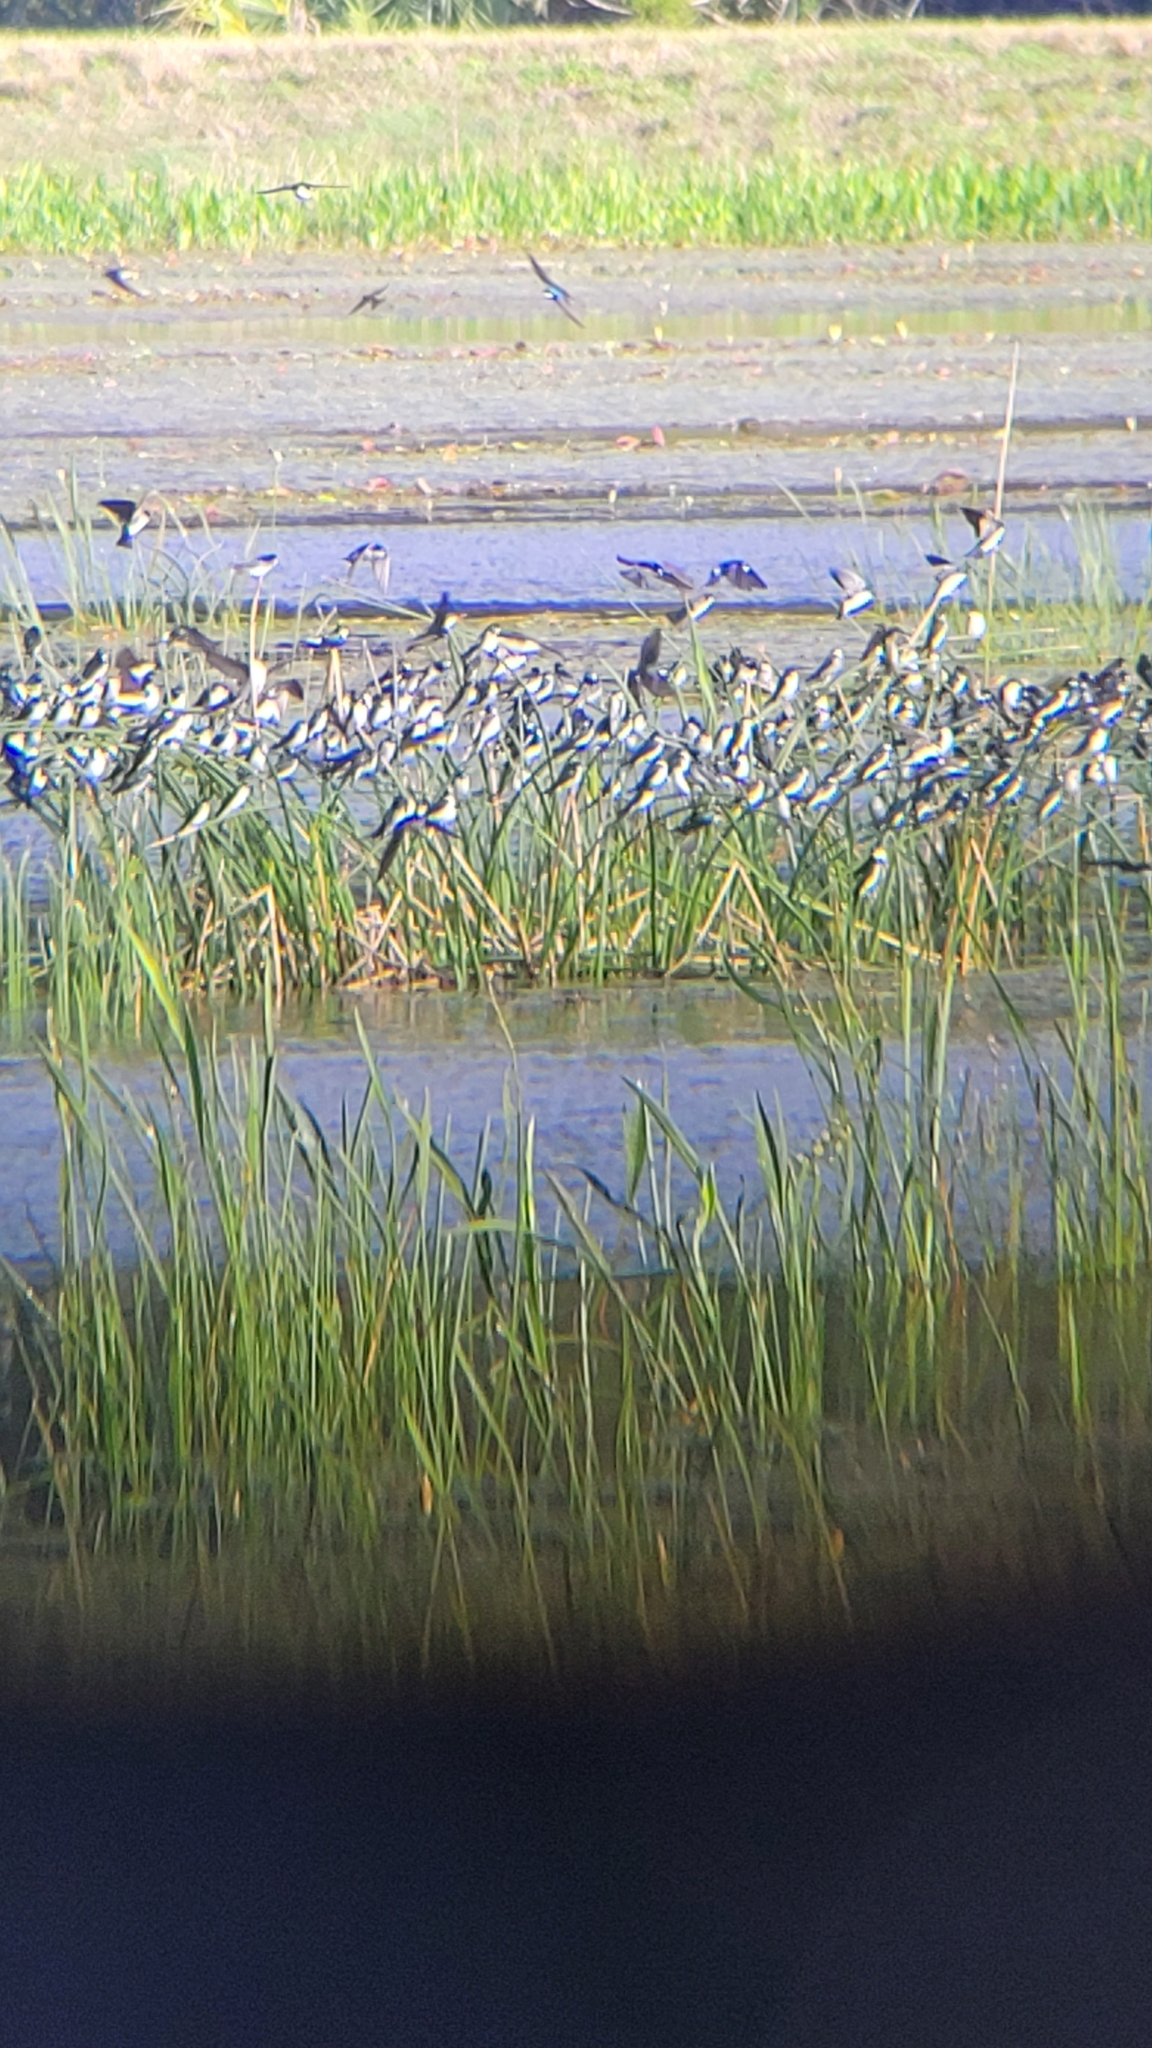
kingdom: Animalia
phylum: Chordata
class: Aves
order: Passeriformes
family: Hirundinidae
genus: Tachycineta
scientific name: Tachycineta bicolor
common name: Tree swallow
